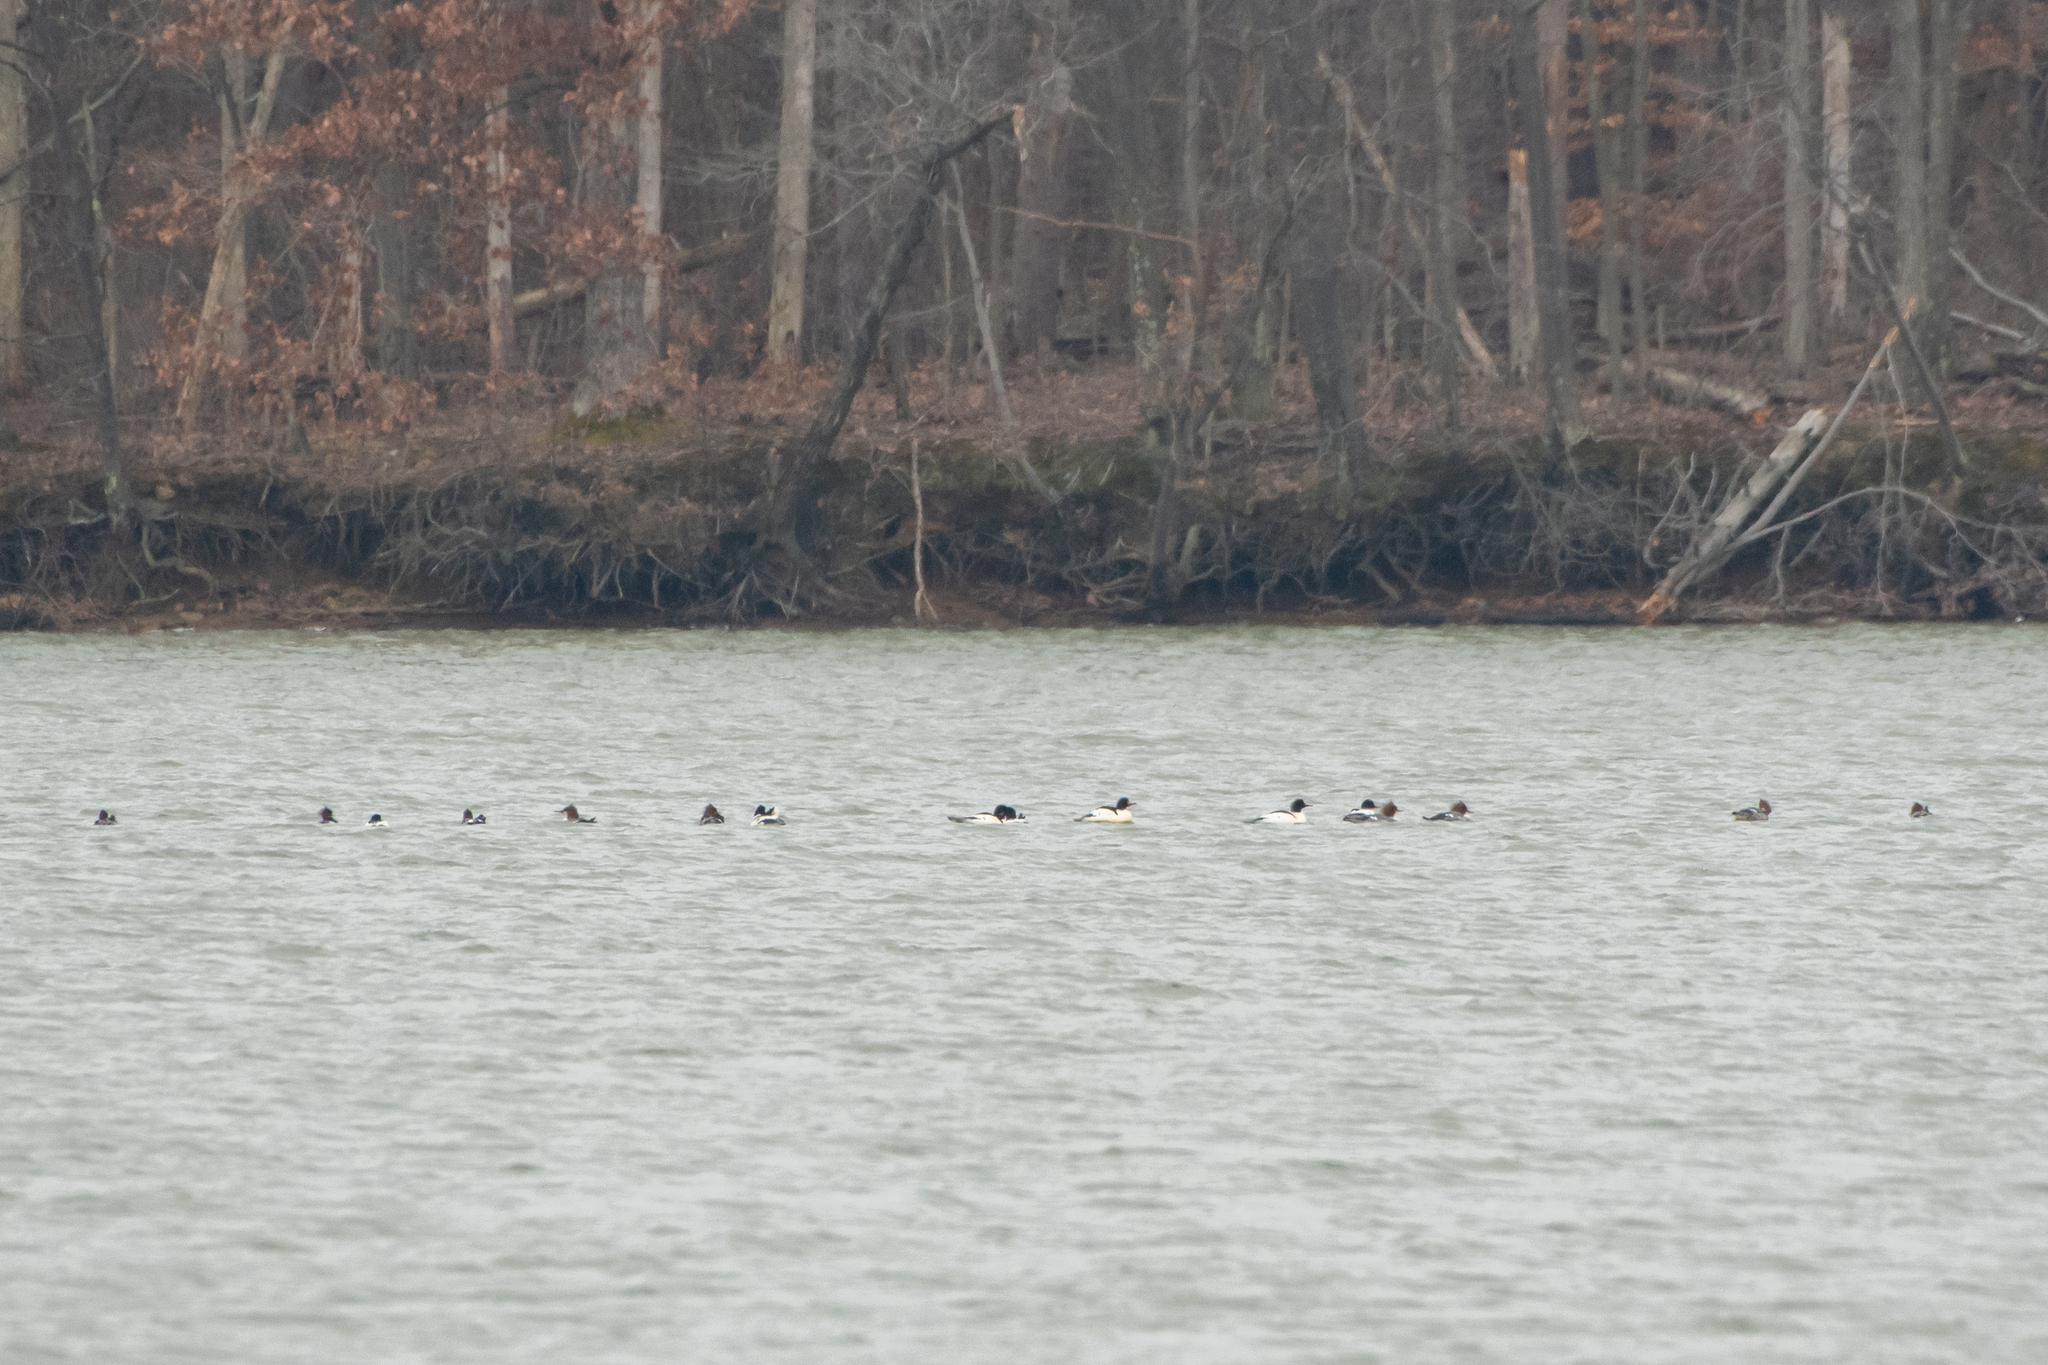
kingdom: Animalia
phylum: Chordata
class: Aves
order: Anseriformes
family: Anatidae
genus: Mergus
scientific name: Mergus merganser
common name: Common merganser
